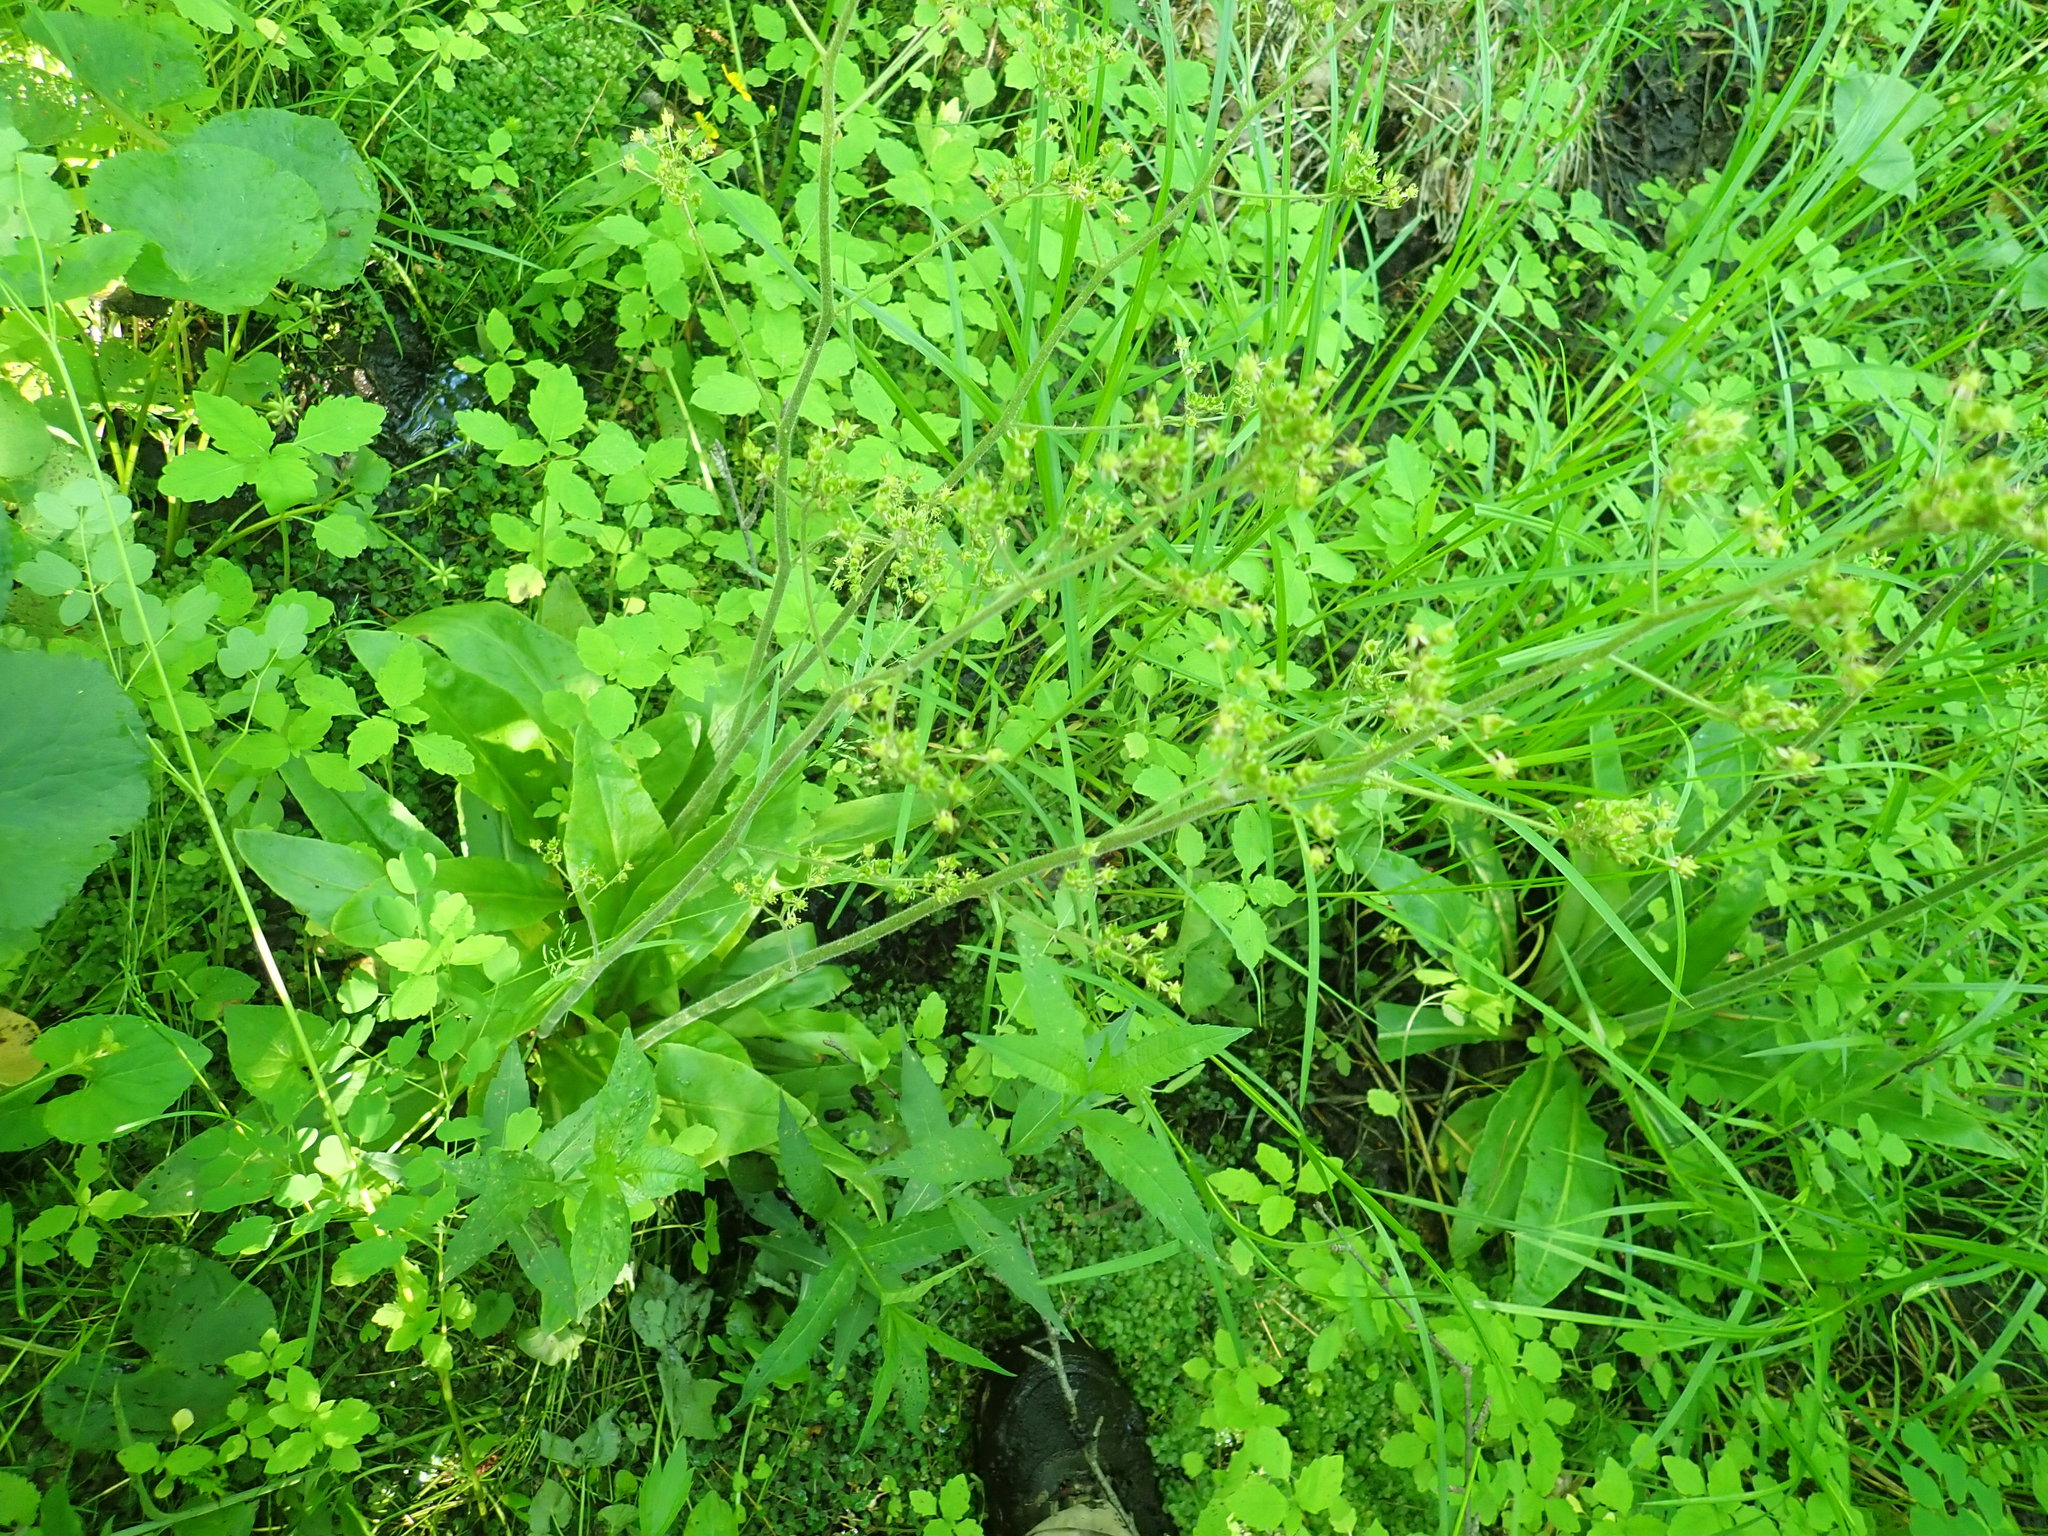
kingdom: Plantae
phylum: Tracheophyta
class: Magnoliopsida
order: Saxifragales
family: Saxifragaceae
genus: Micranthes
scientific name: Micranthes pensylvanica
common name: Marsh saxifrage
